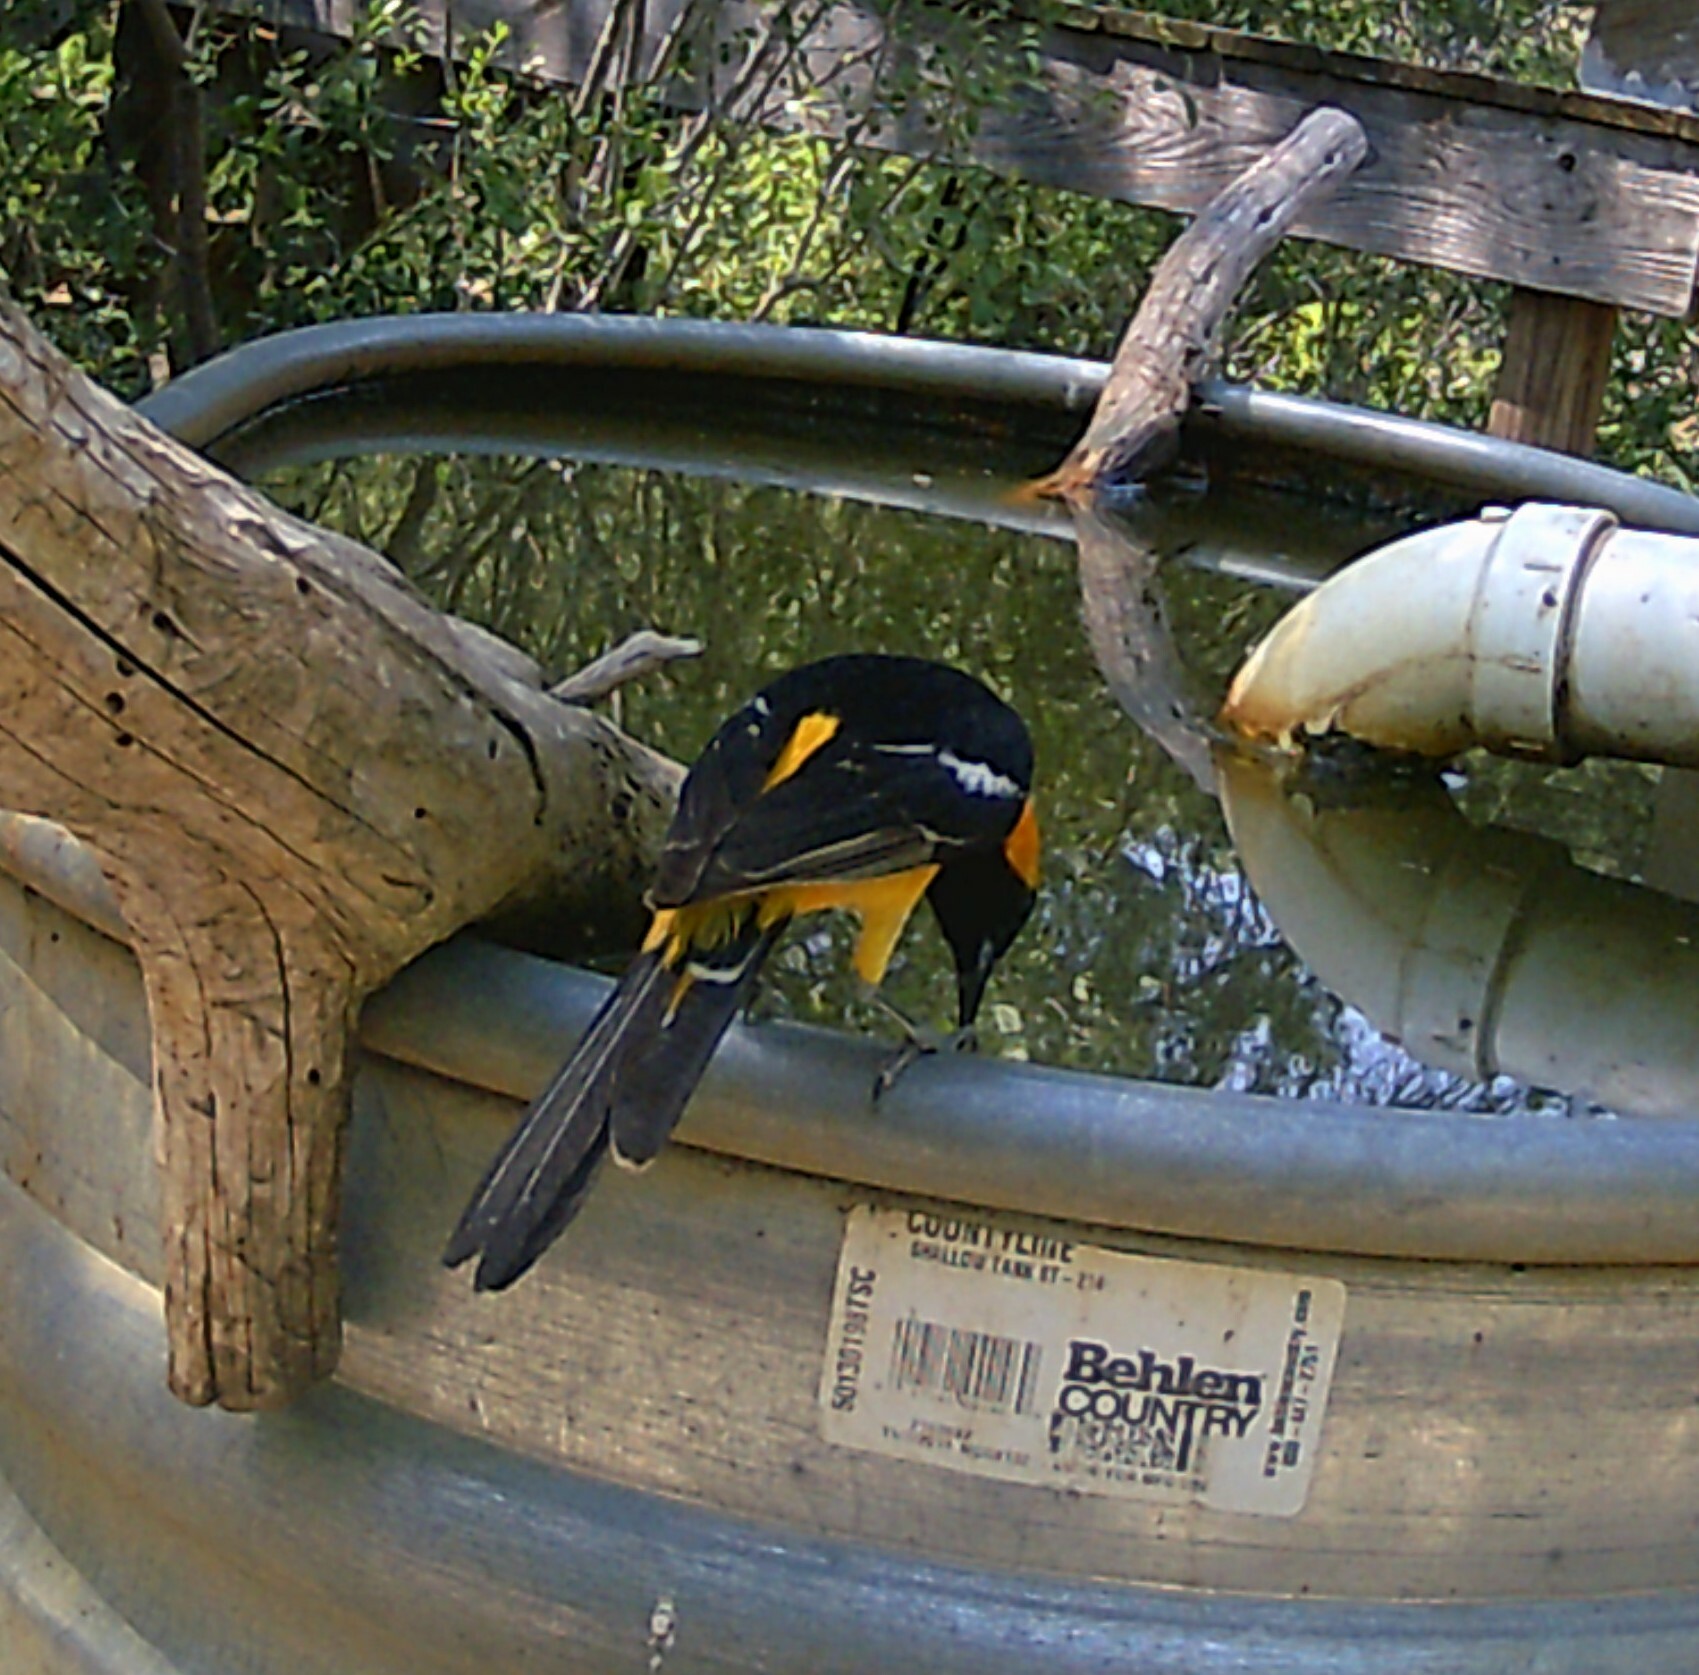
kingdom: Animalia
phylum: Chordata
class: Aves
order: Passeriformes
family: Icteridae
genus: Icterus
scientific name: Icterus cucullatus
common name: Hooded oriole
